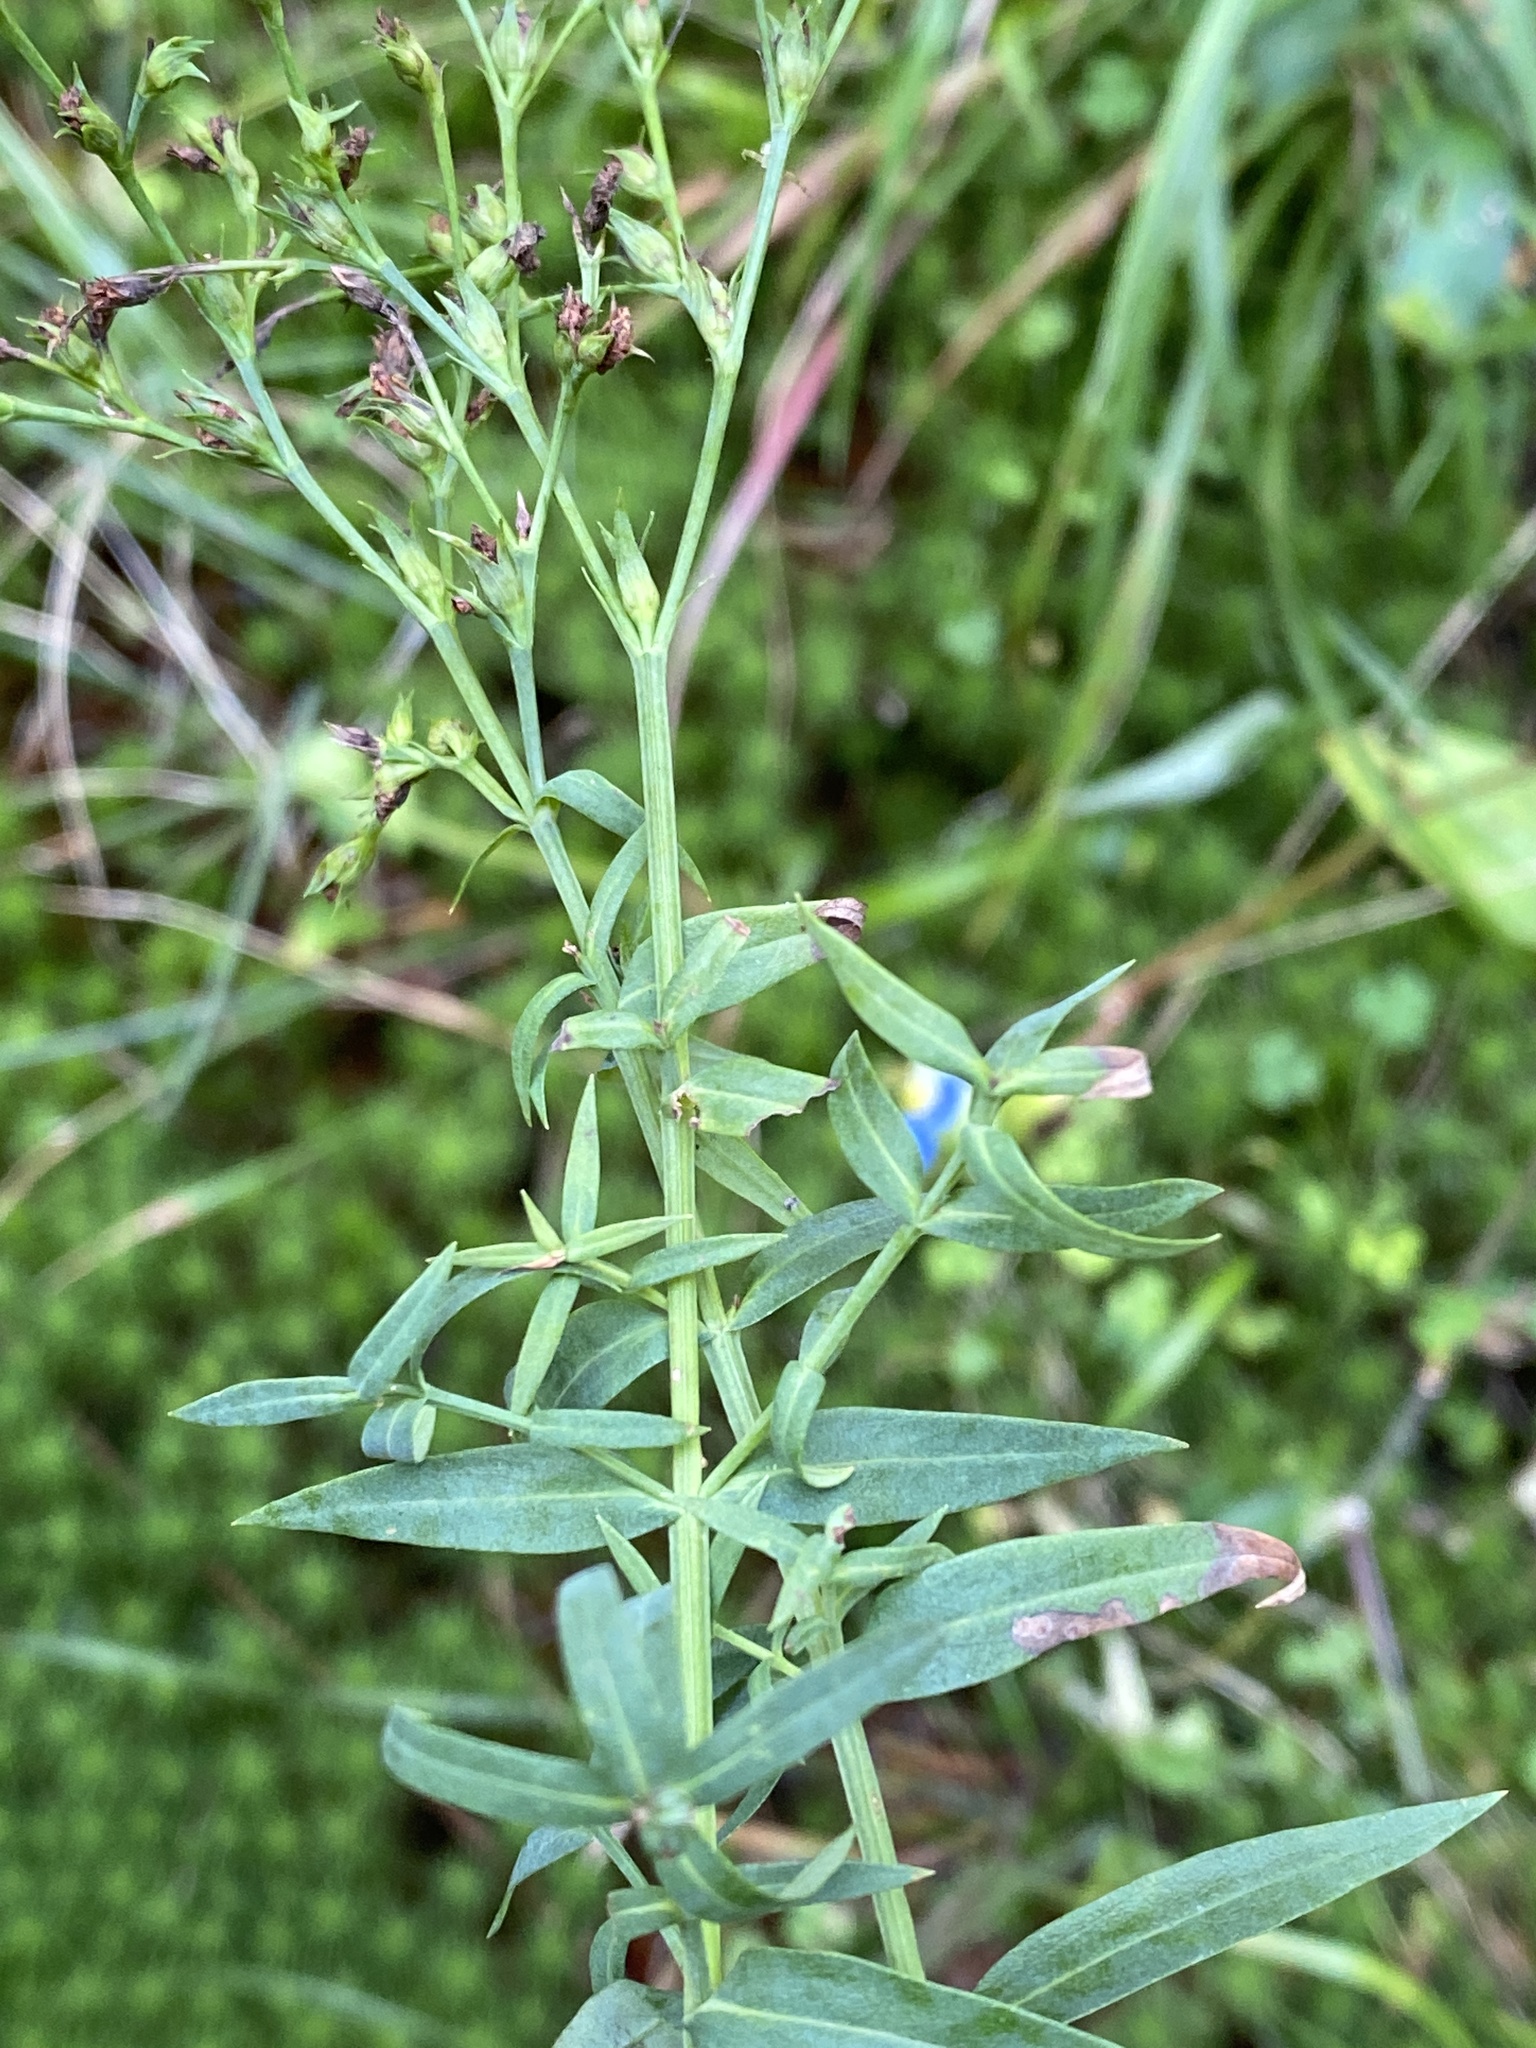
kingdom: Plantae
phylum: Tracheophyta
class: Magnoliopsida
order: Malpighiales
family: Hypericaceae
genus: Hypericum
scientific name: Hypericum radfordiorum
